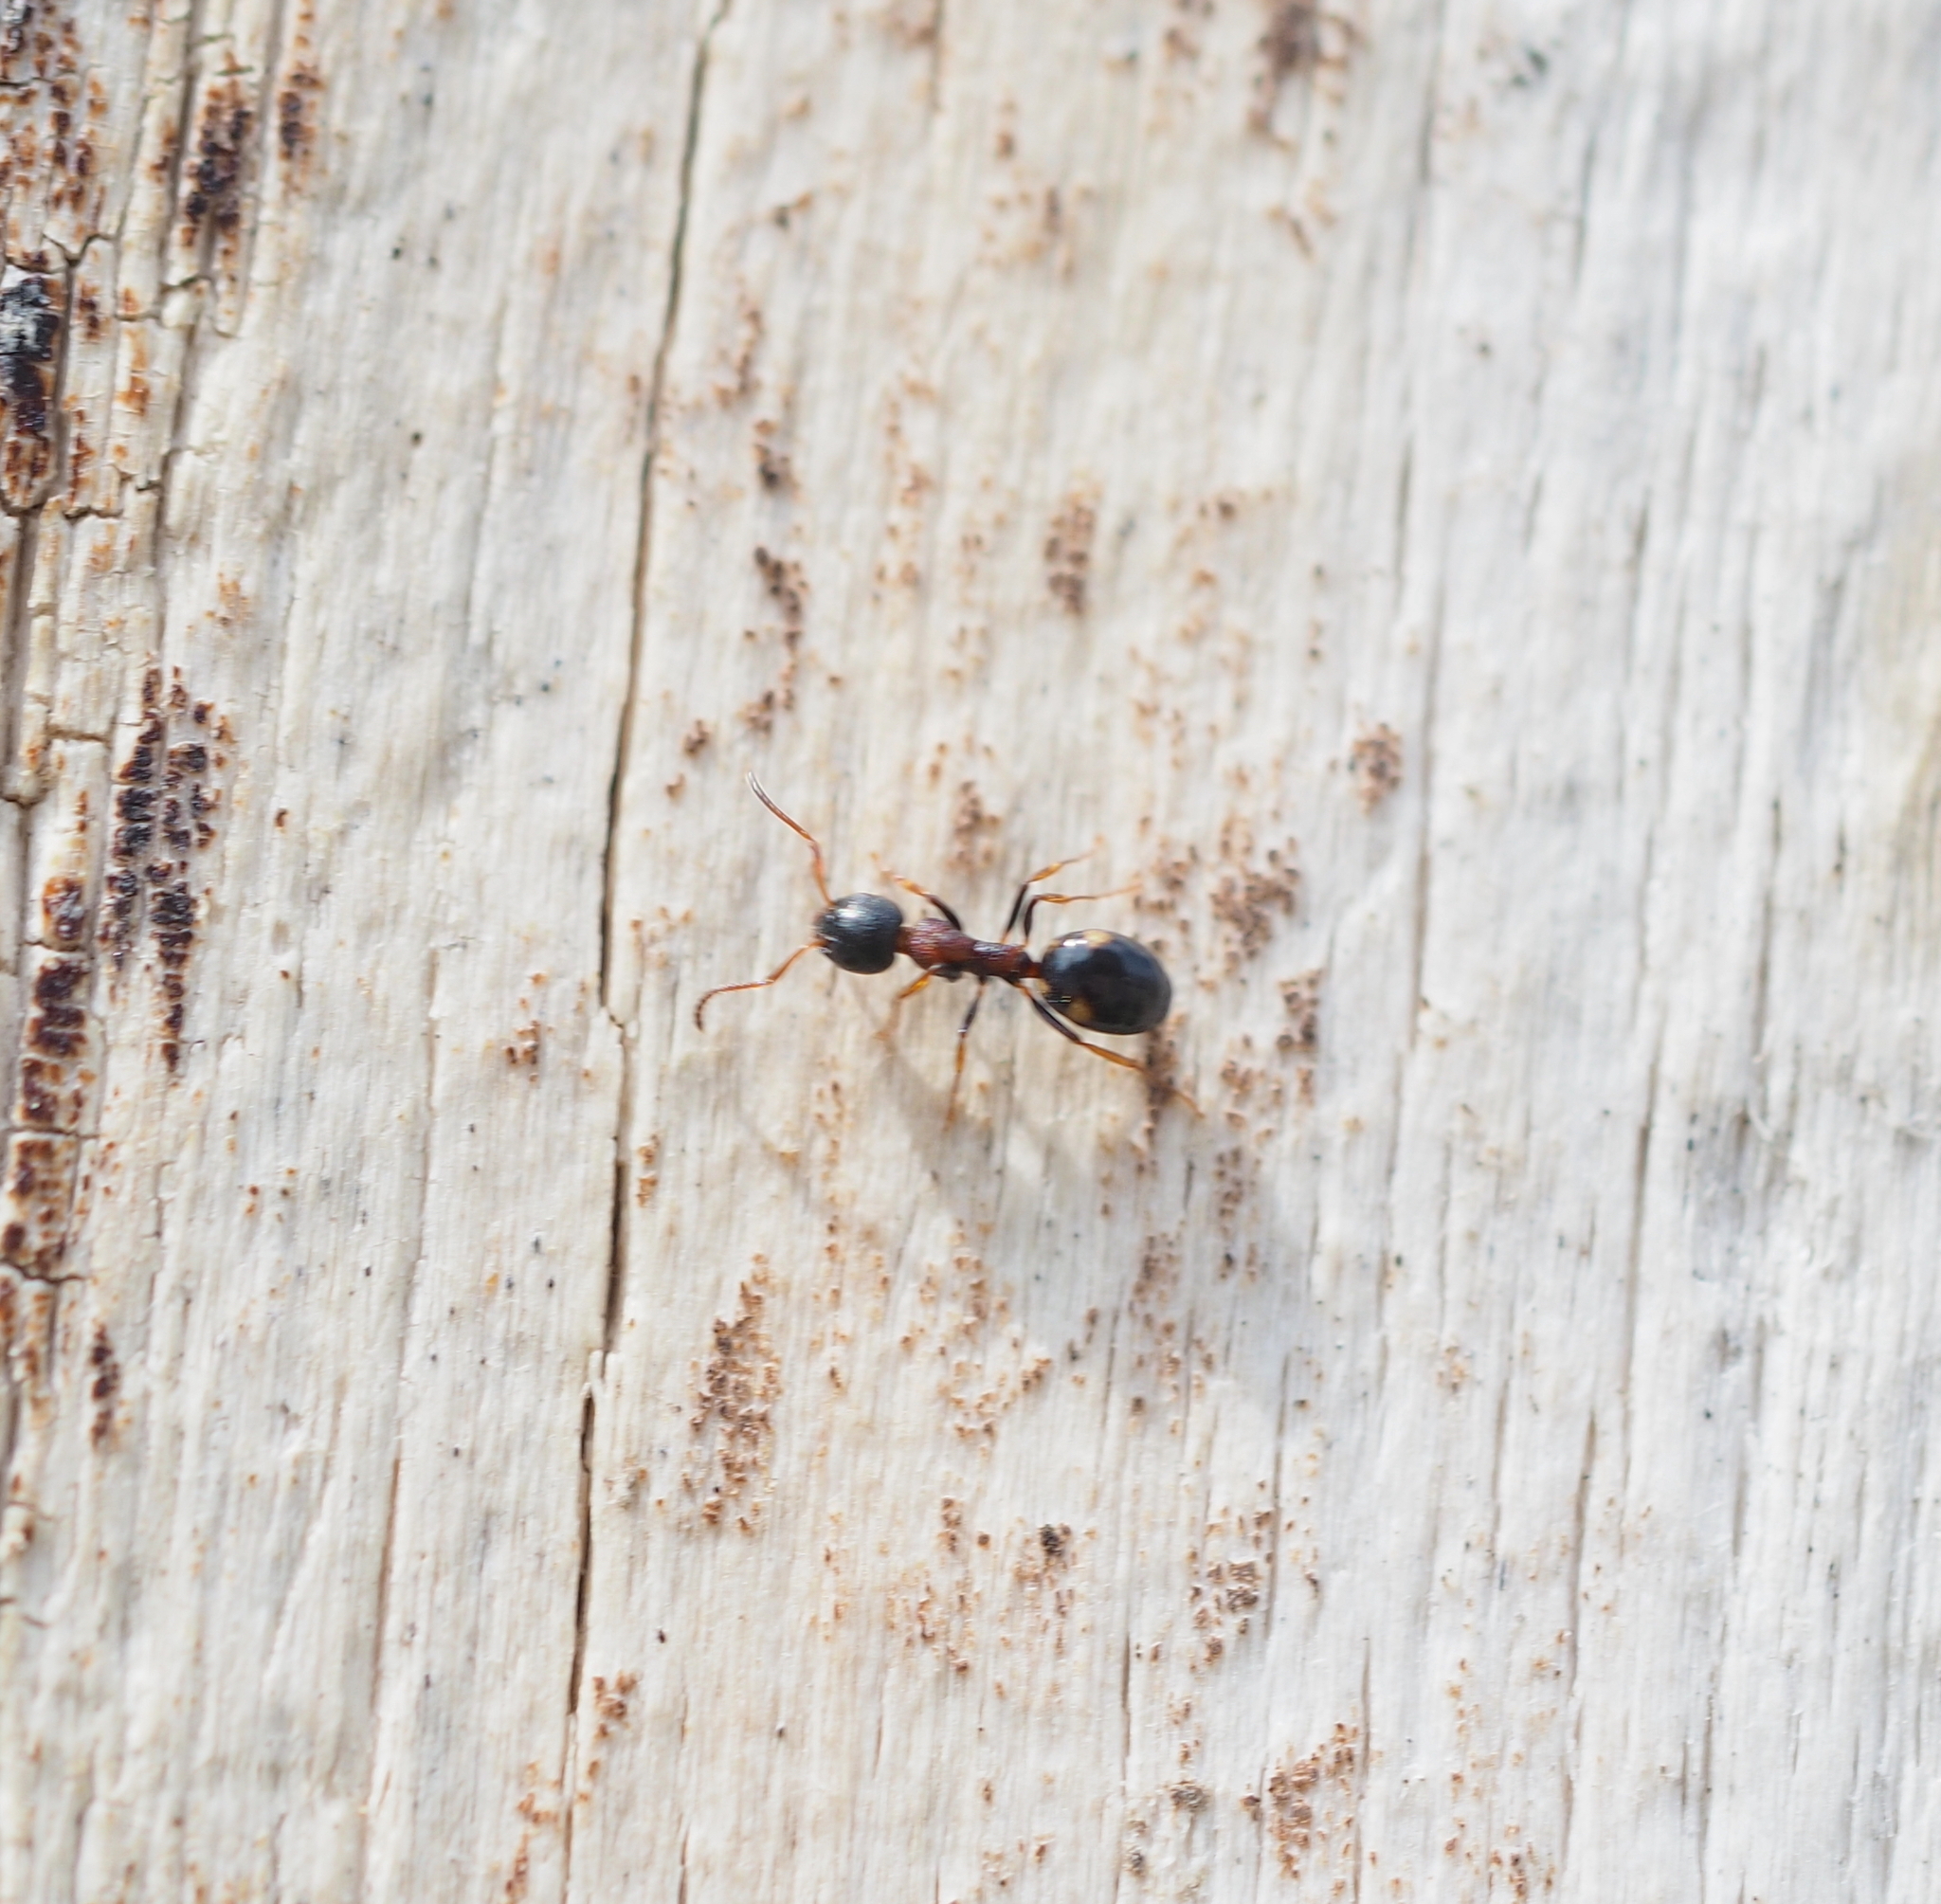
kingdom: Animalia
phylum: Arthropoda
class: Insecta
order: Hymenoptera
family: Formicidae
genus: Dolichoderus
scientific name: Dolichoderus quadripunctatus
